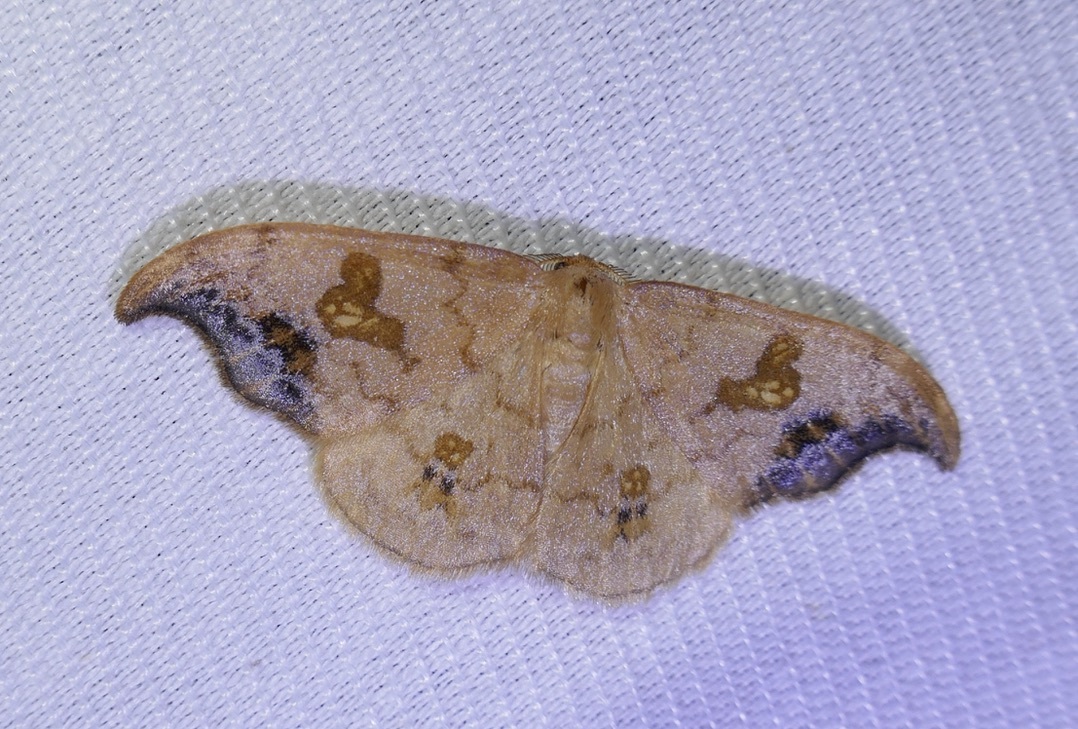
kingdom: Animalia
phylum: Arthropoda
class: Insecta
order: Lepidoptera
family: Drepanidae
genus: Sabra
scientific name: Sabra harpagula
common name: Scarce hook-tip
